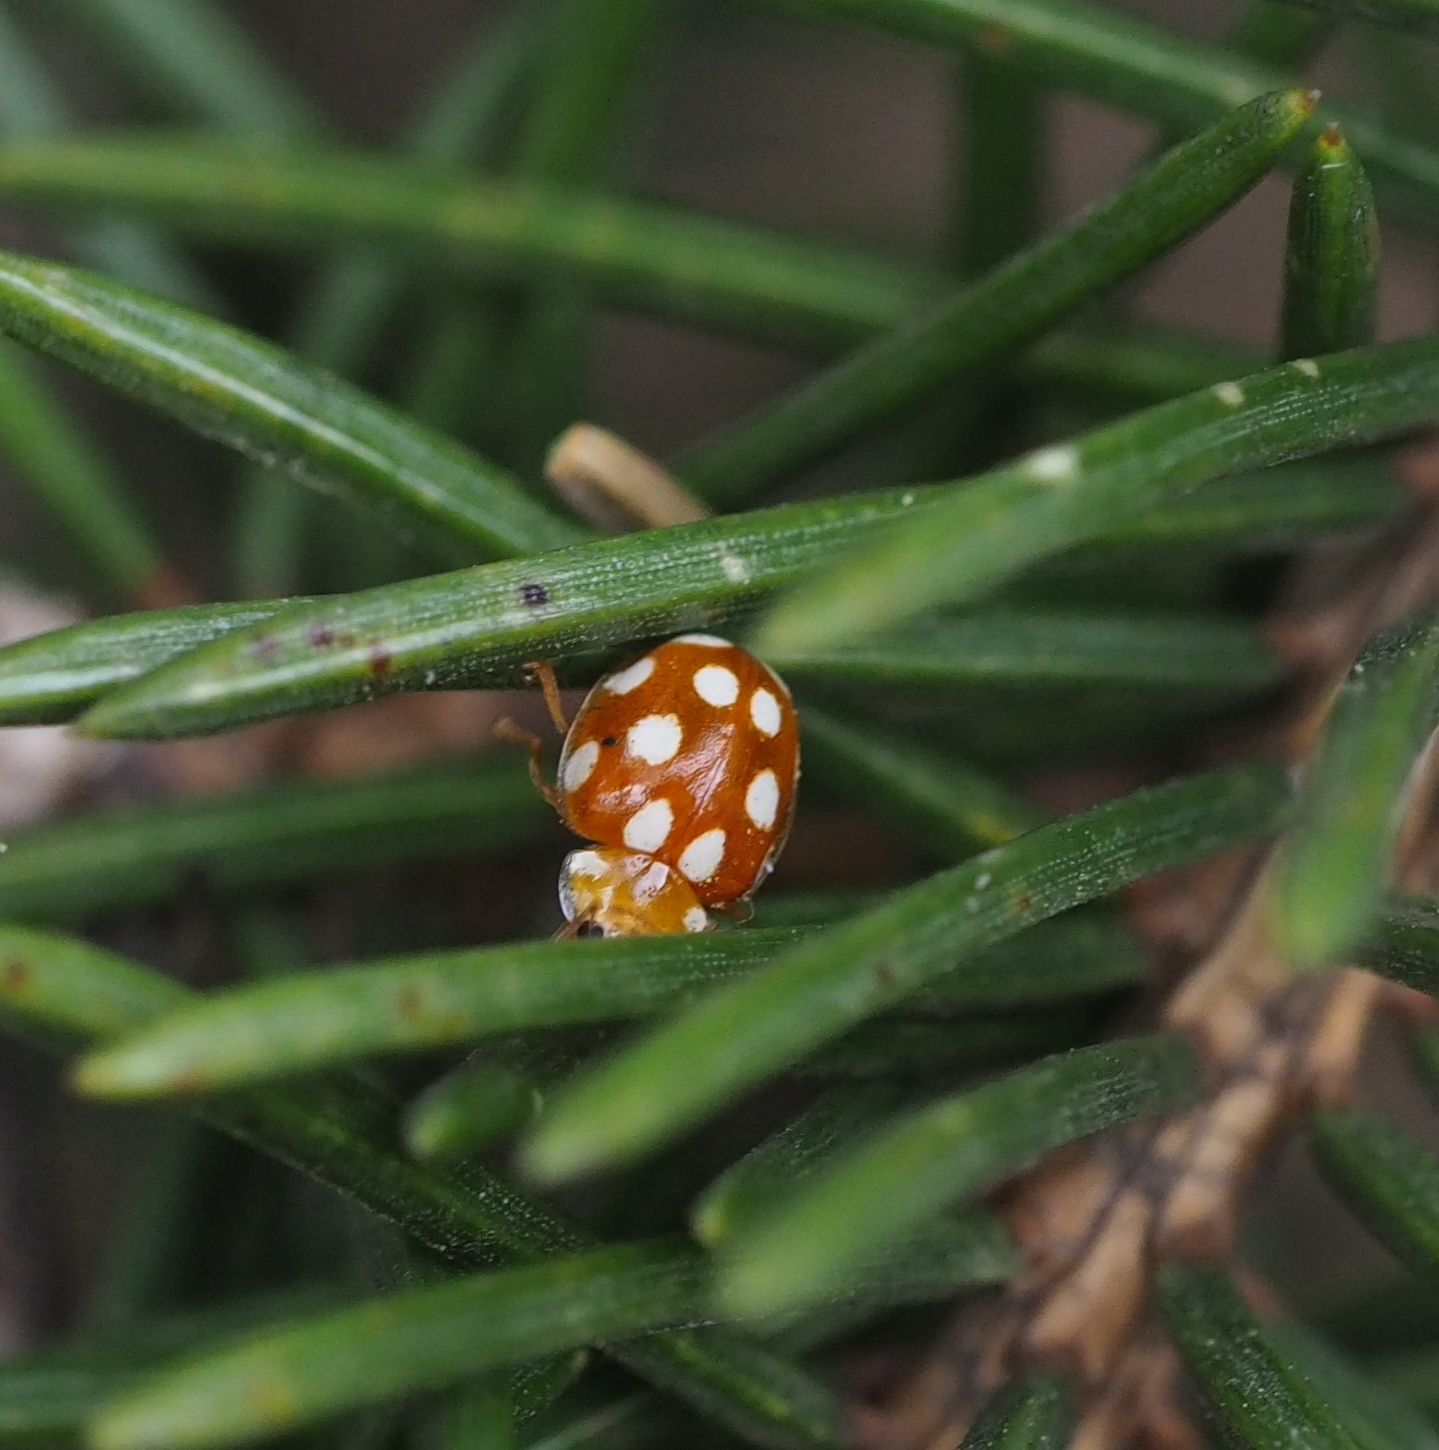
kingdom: Animalia
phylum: Arthropoda
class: Insecta
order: Coleoptera
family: Coccinellidae
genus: Vibidia
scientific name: Vibidia duodecimguttata
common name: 12-spot ladybird
